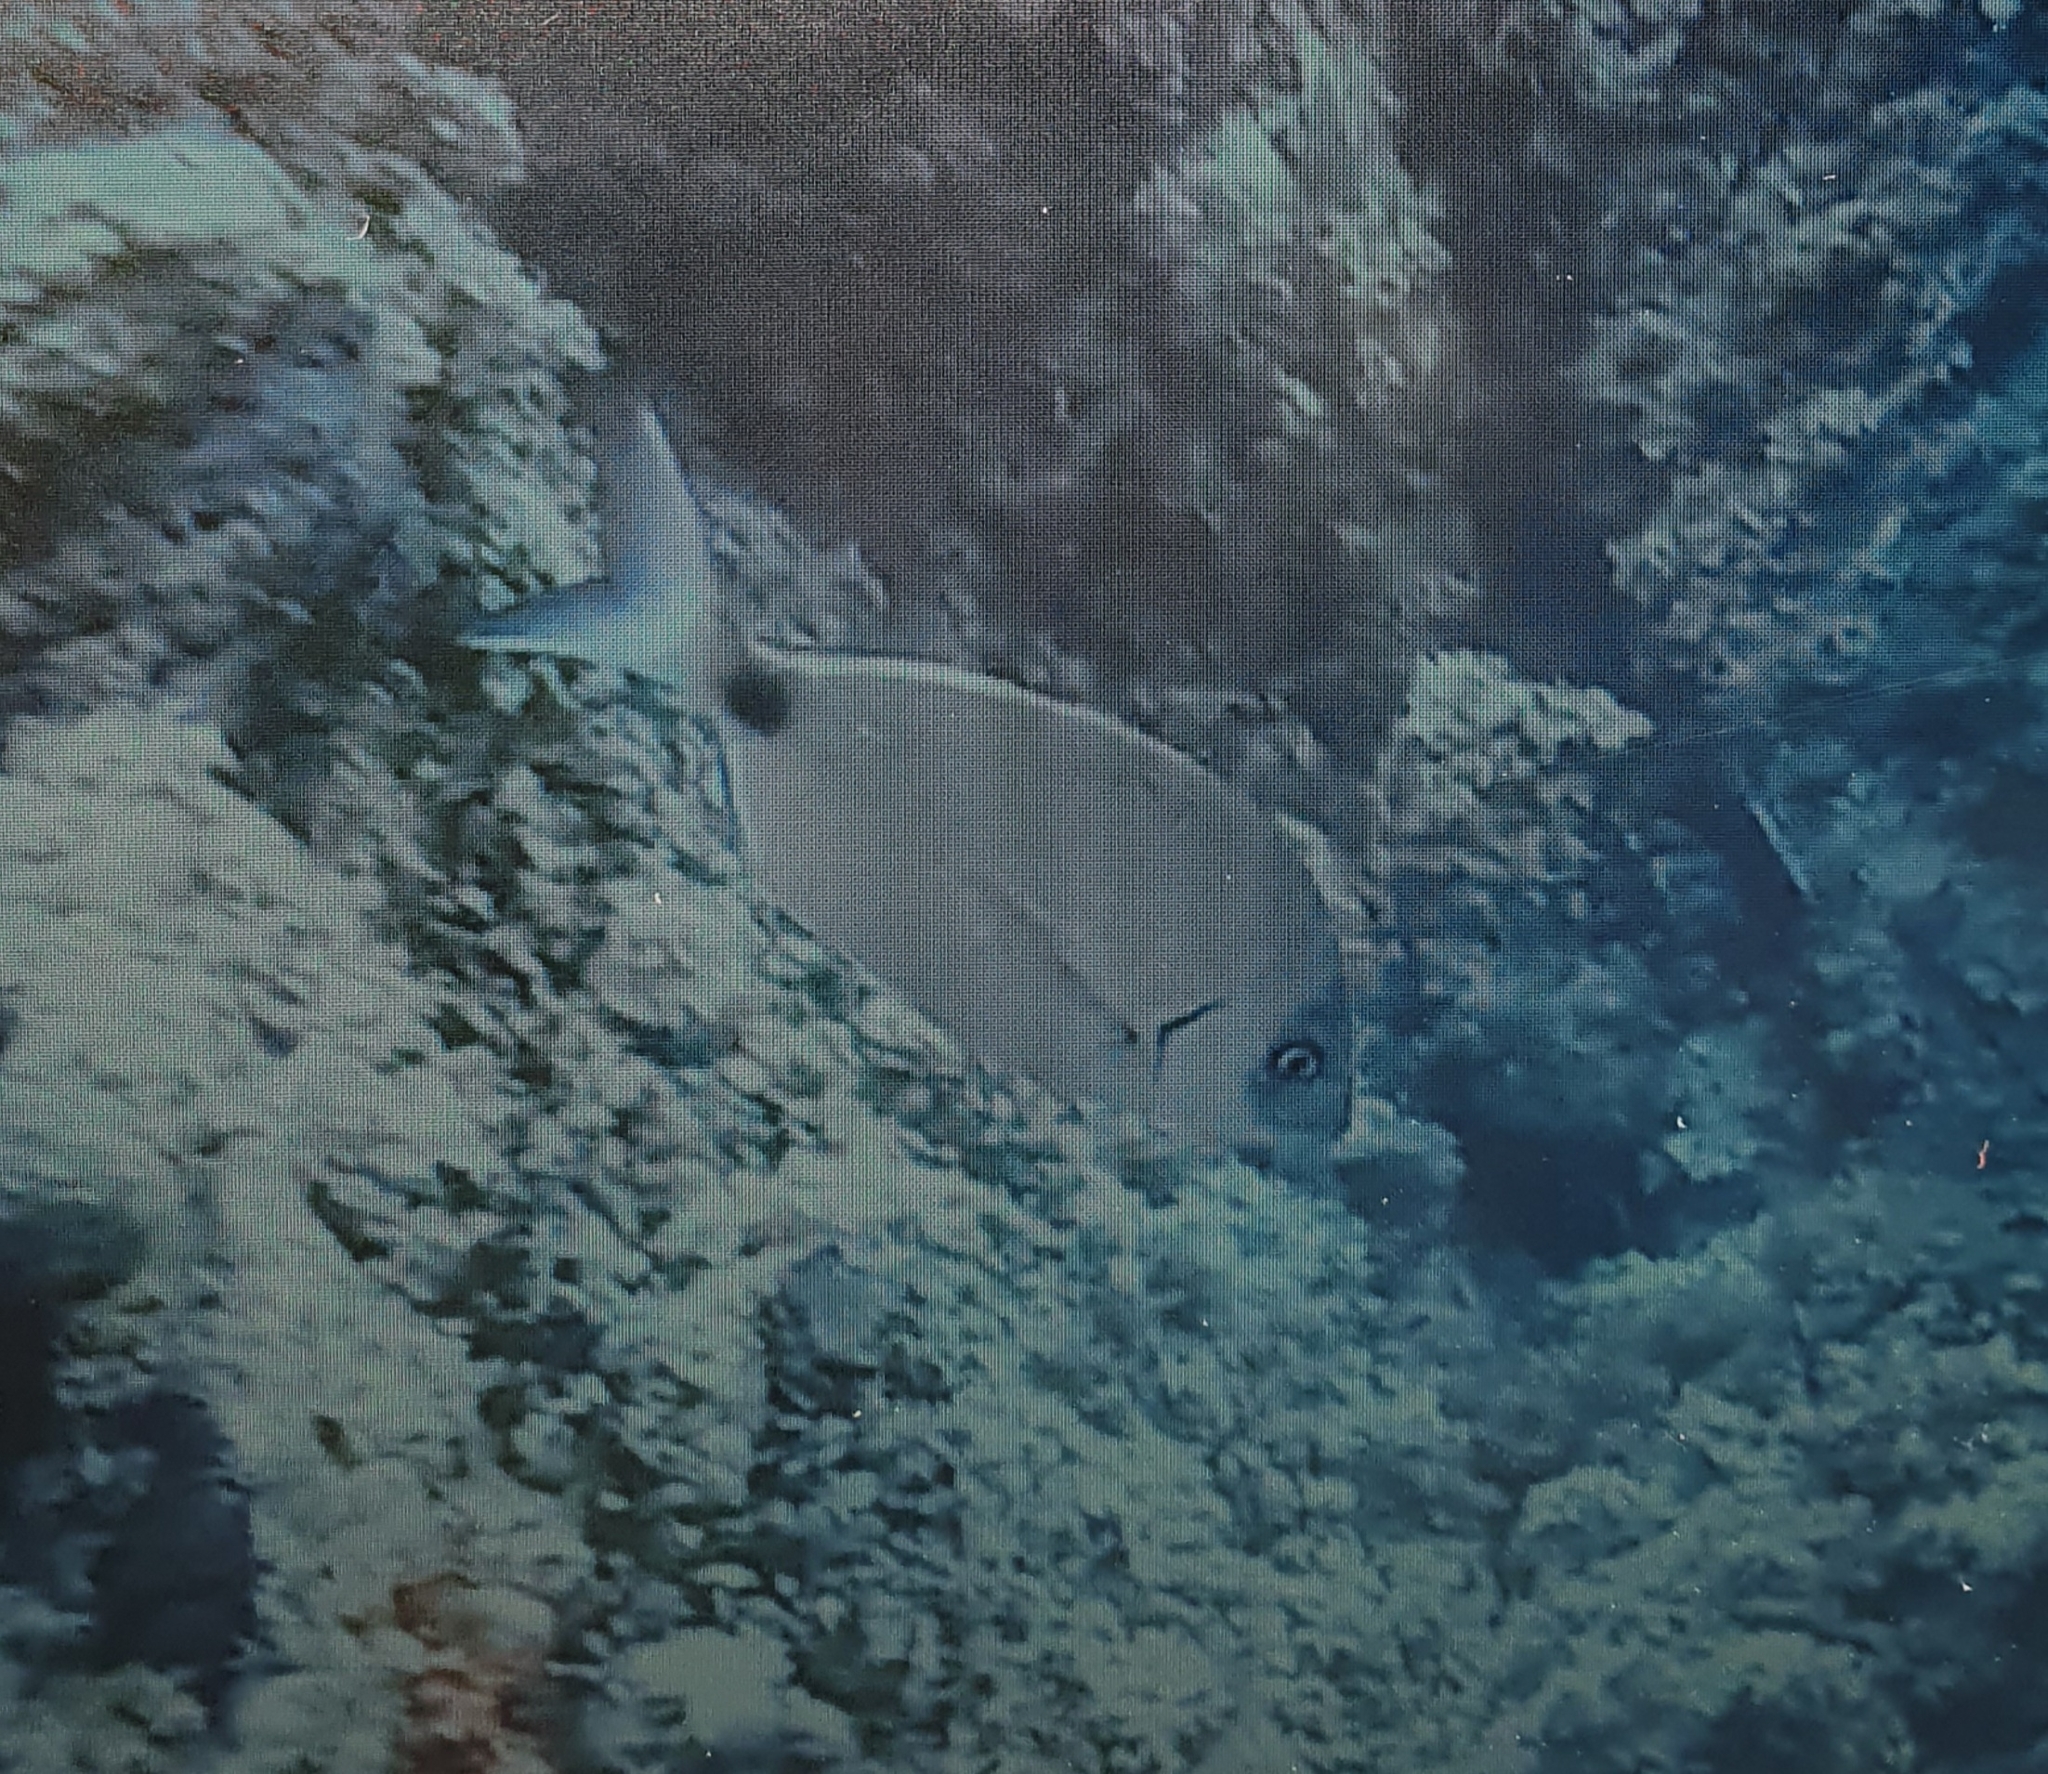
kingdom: Animalia
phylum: Chordata
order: Perciformes
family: Sparidae
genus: Diplodus
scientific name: Diplodus sargus
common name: White seabream
